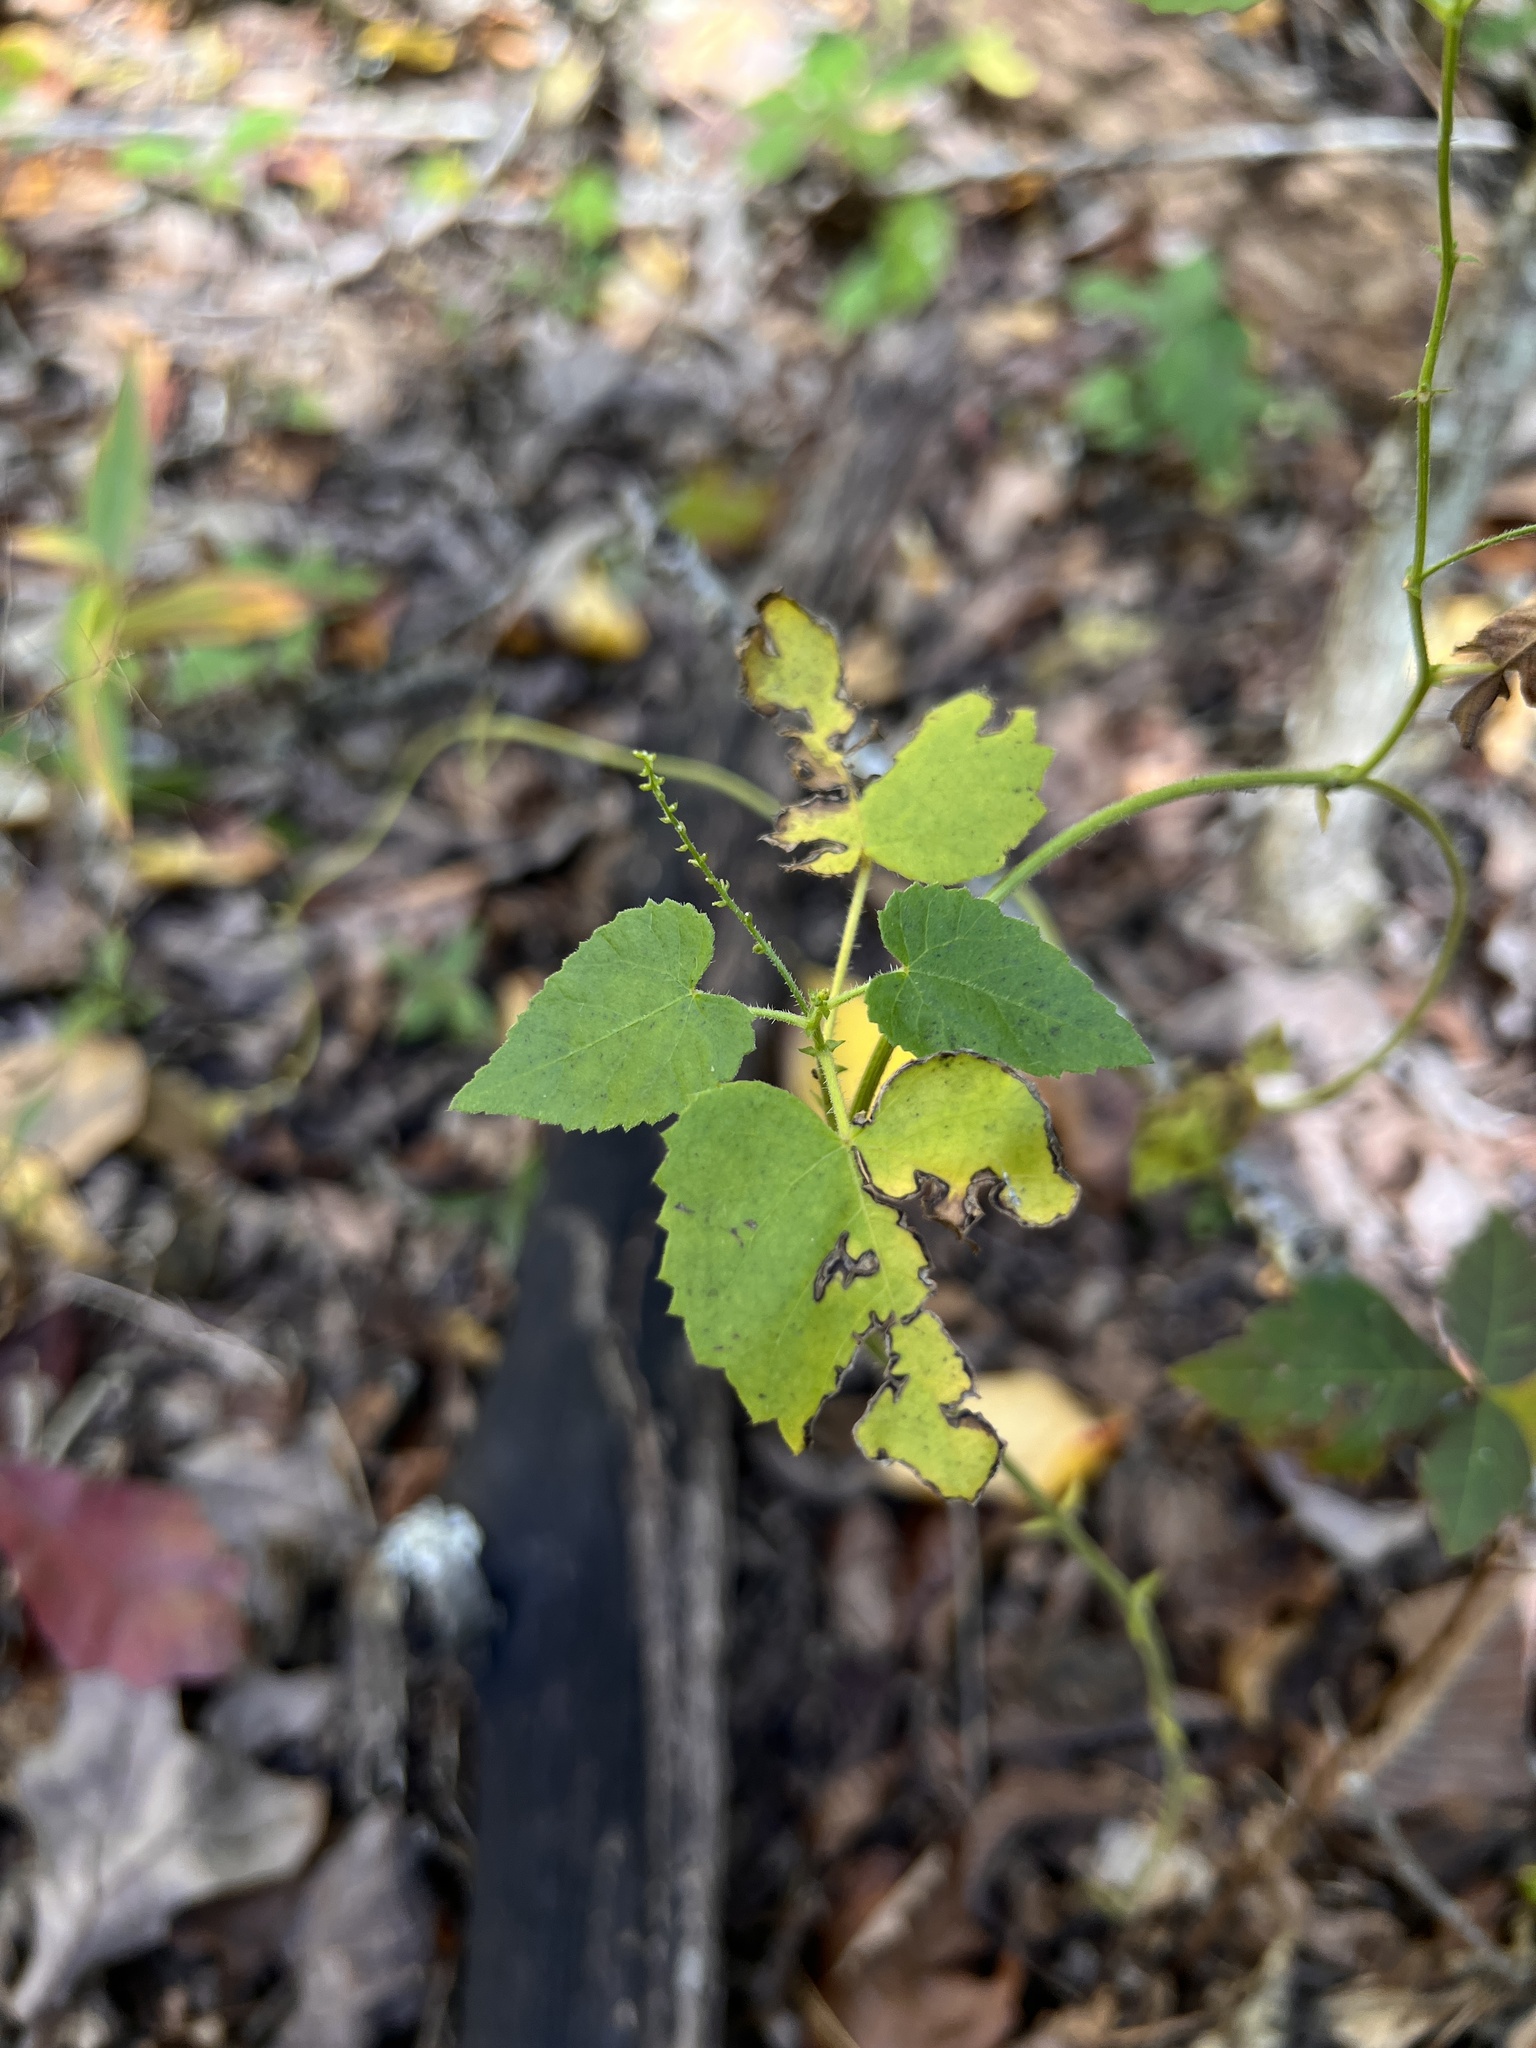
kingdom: Plantae
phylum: Tracheophyta
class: Magnoliopsida
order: Malpighiales
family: Euphorbiaceae
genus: Tragia
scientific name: Tragia cordata
